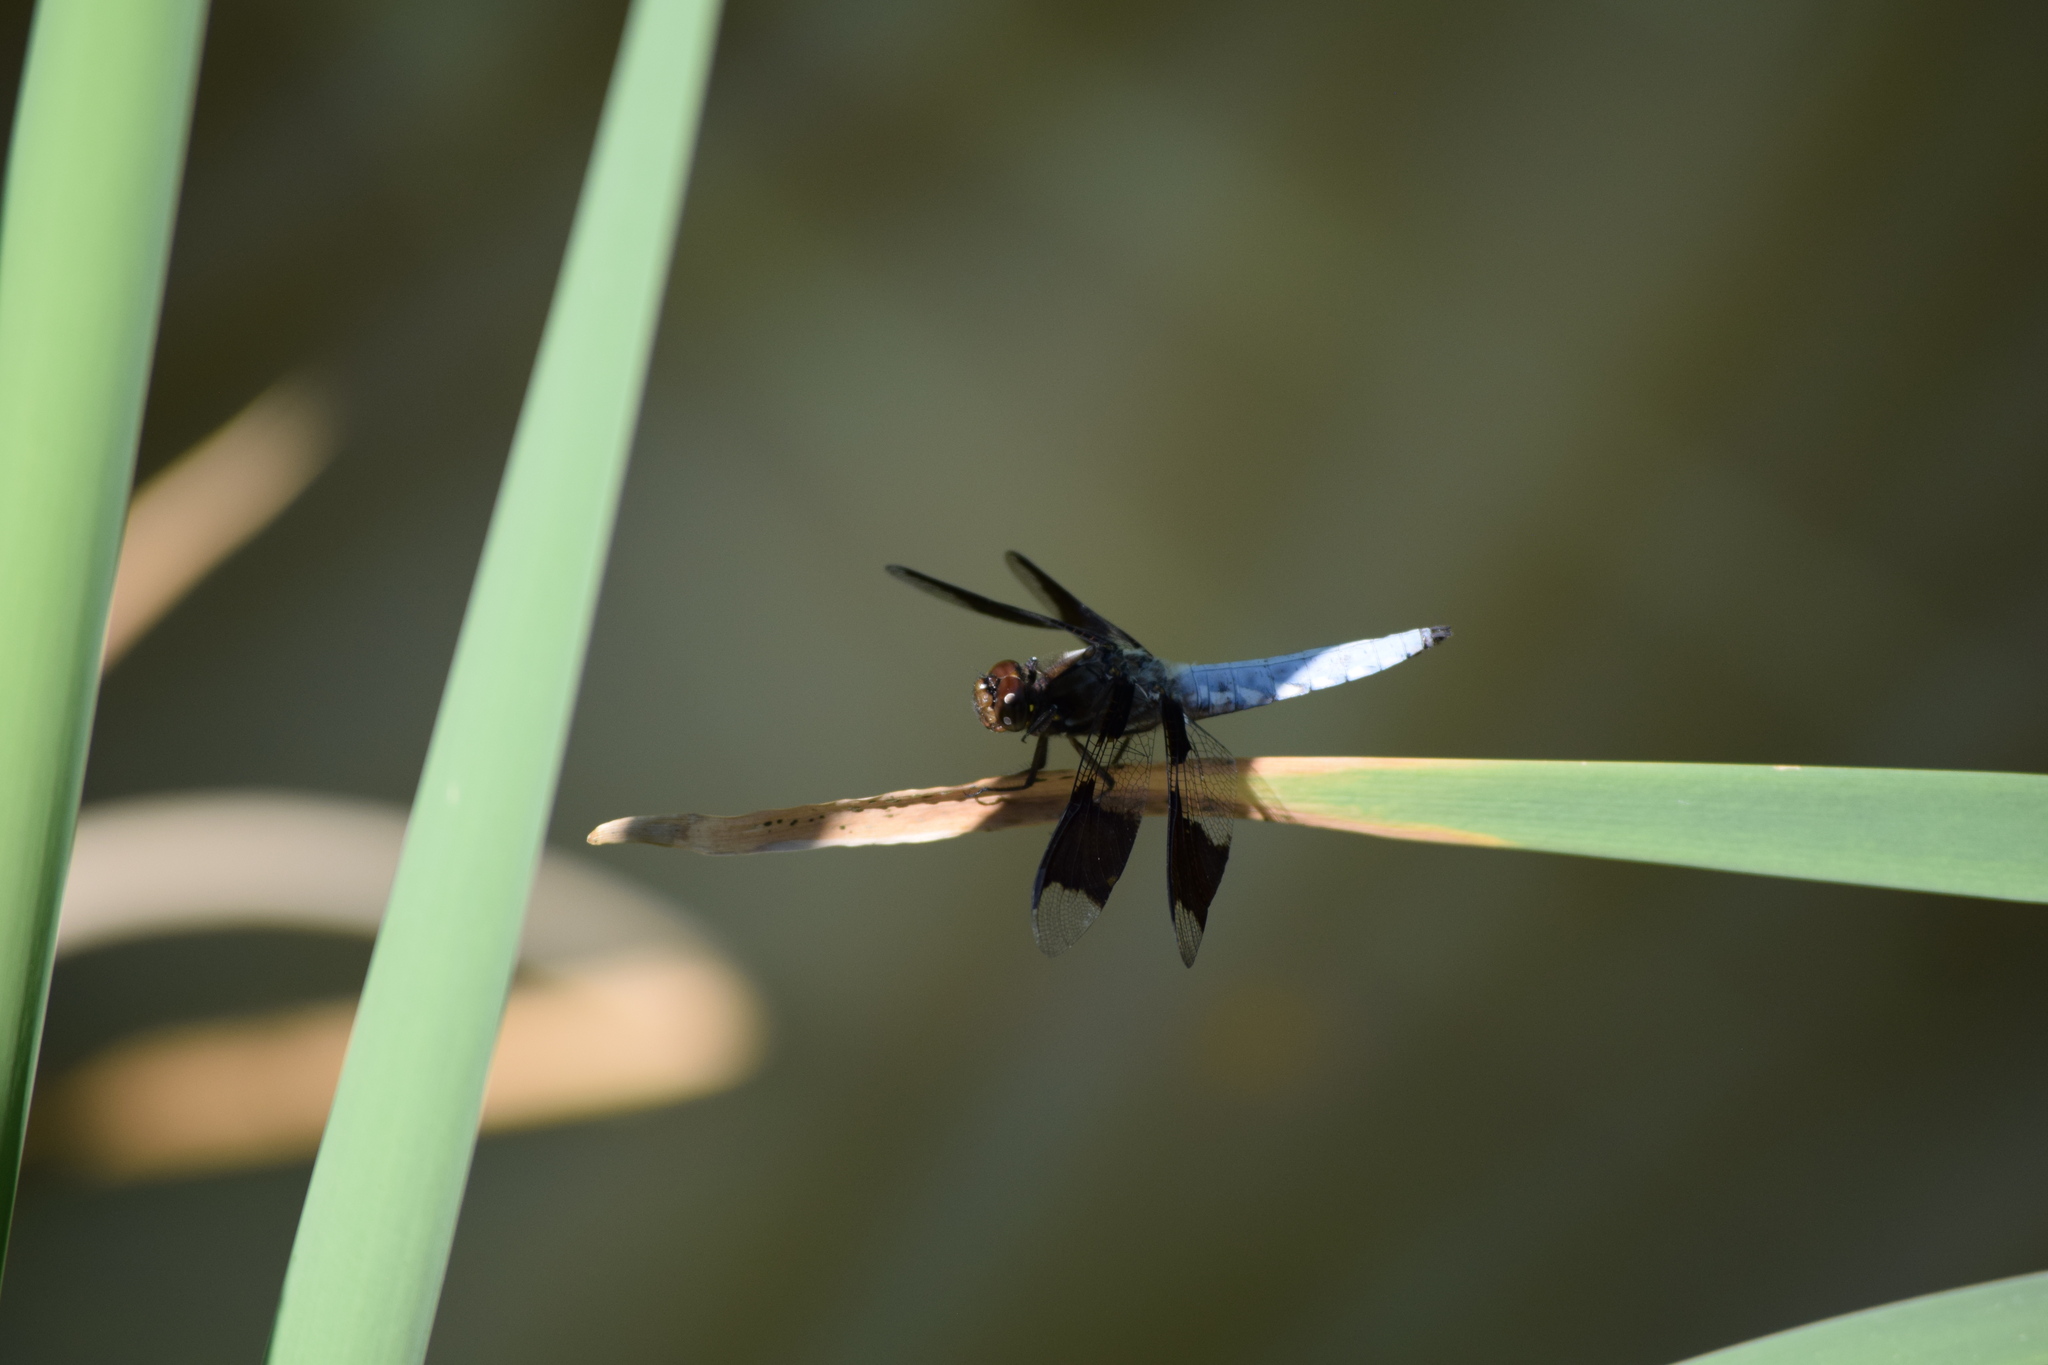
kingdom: Animalia
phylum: Arthropoda
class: Insecta
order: Odonata
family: Libellulidae
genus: Plathemis
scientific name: Plathemis lydia
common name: Common whitetail
